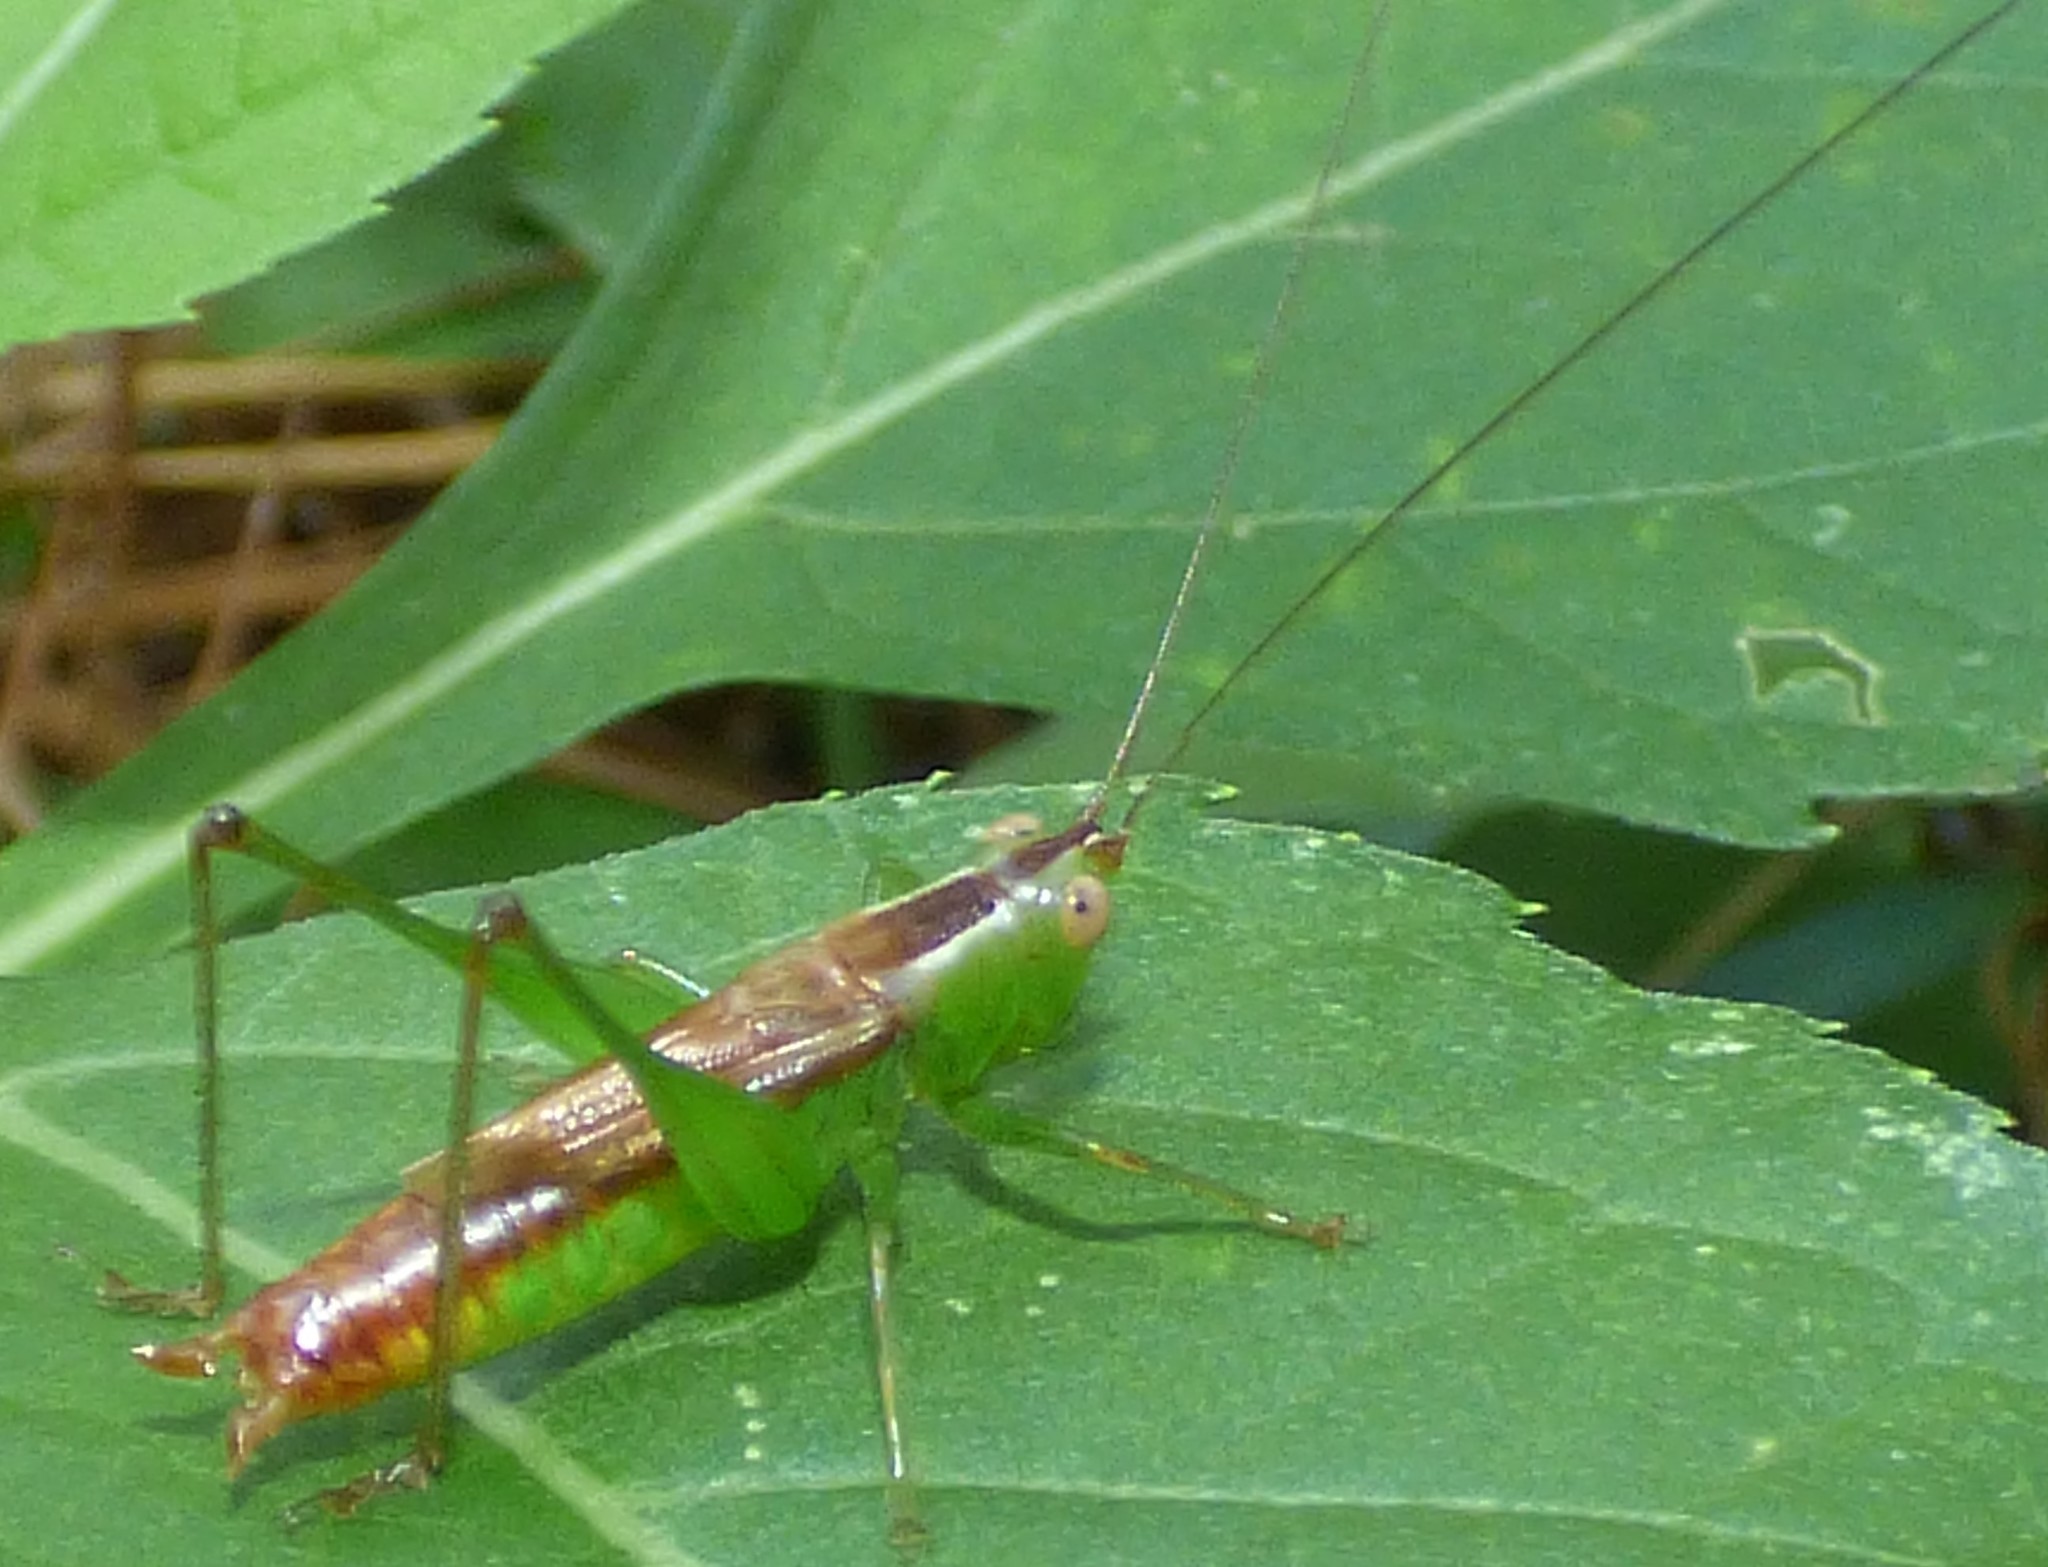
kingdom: Animalia
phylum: Arthropoda
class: Insecta
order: Orthoptera
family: Tettigoniidae
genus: Conocephalus
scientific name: Conocephalus brevipennis
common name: Short-winged meadow katydid
